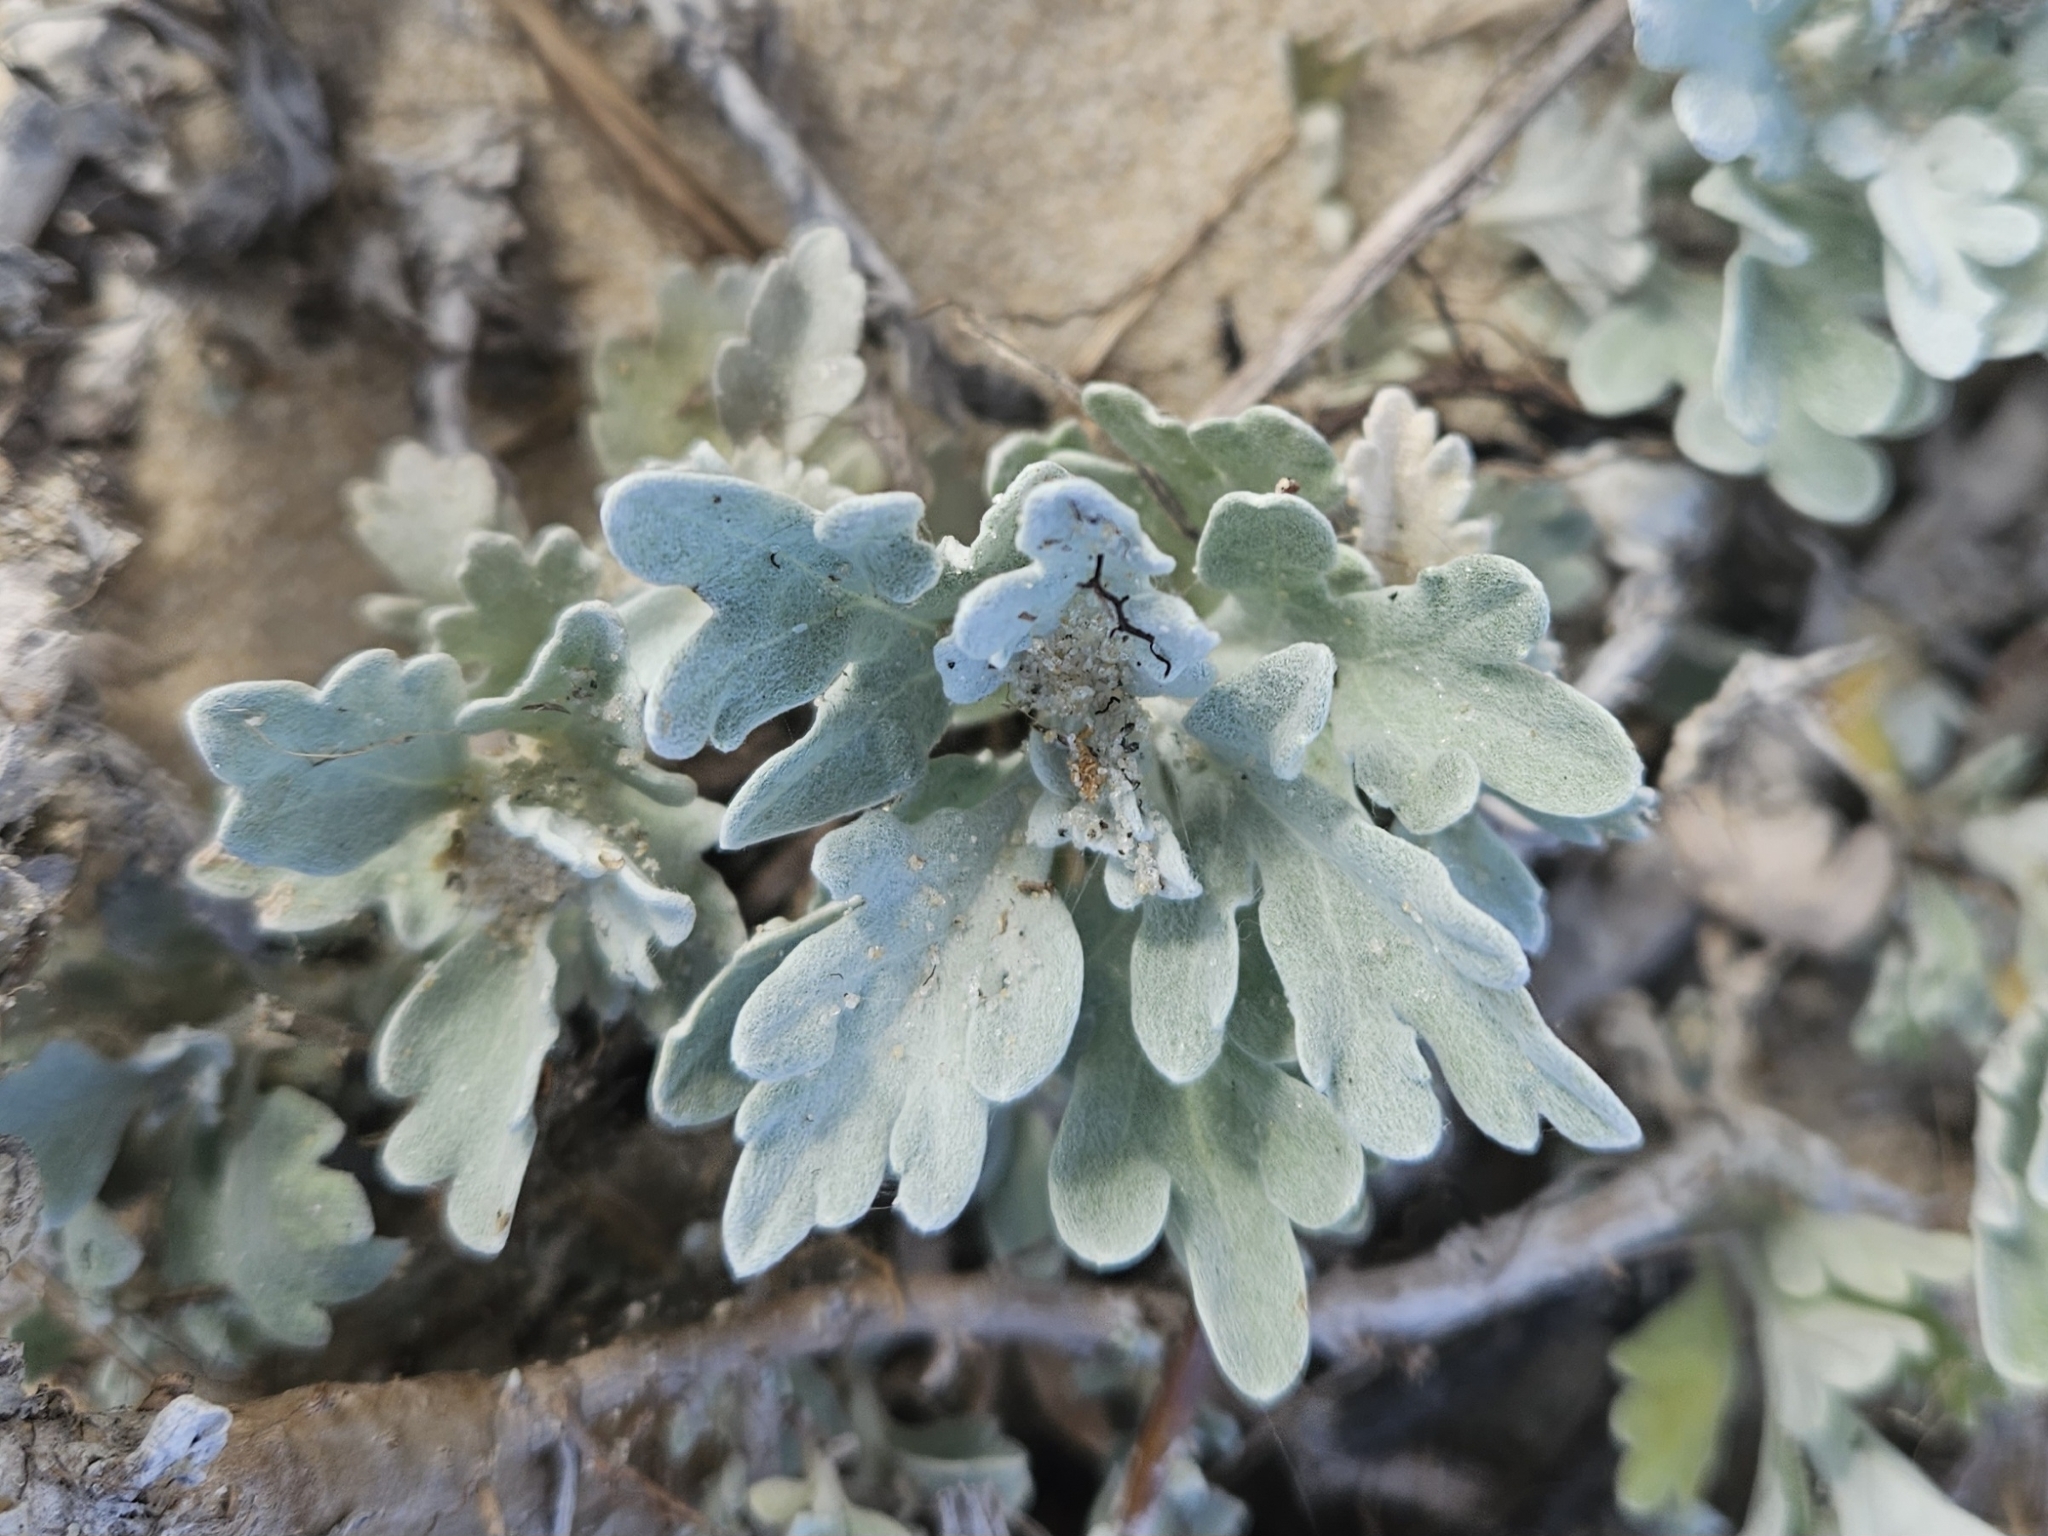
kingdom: Plantae
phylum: Tracheophyta
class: Magnoliopsida
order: Asterales
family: Asteraceae
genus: Artemisia
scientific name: Artemisia stelleriana
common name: Beach wormwood
